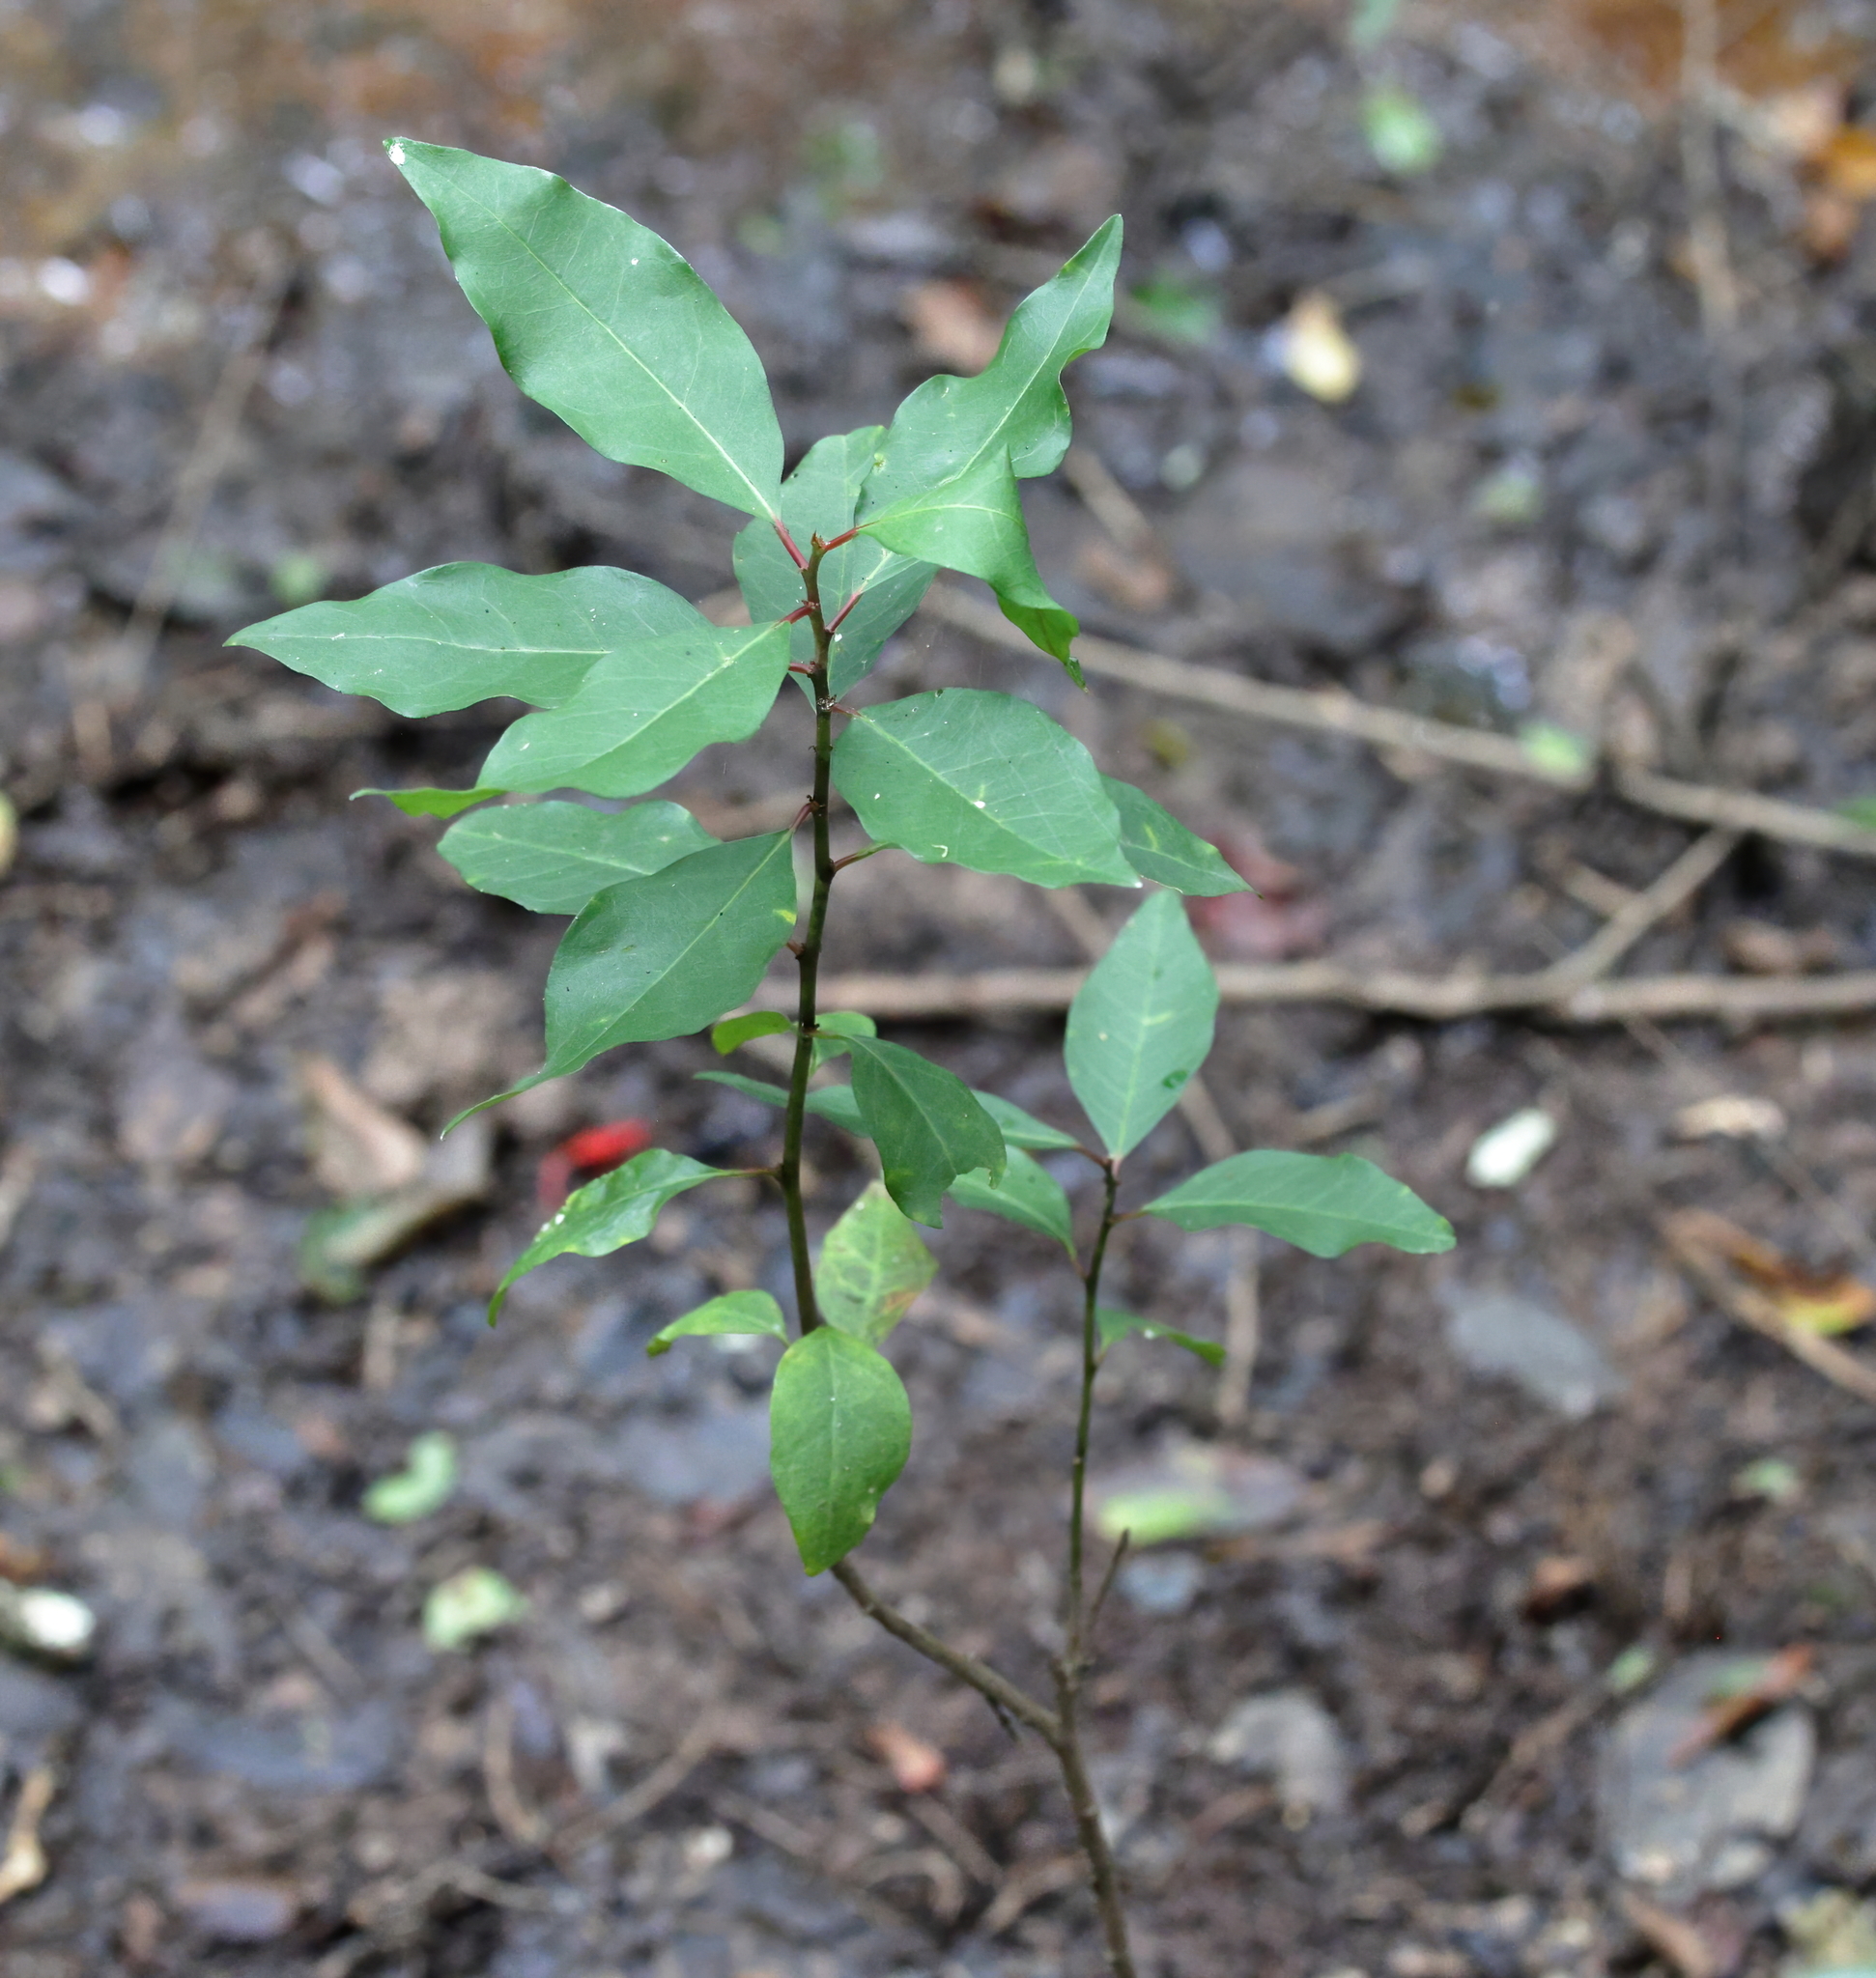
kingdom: Plantae
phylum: Tracheophyta
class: Magnoliopsida
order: Malpighiales
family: Euphorbiaceae
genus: Ditrysinia
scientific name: Ditrysinia fruticosa
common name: Gulf sebastian-bush
